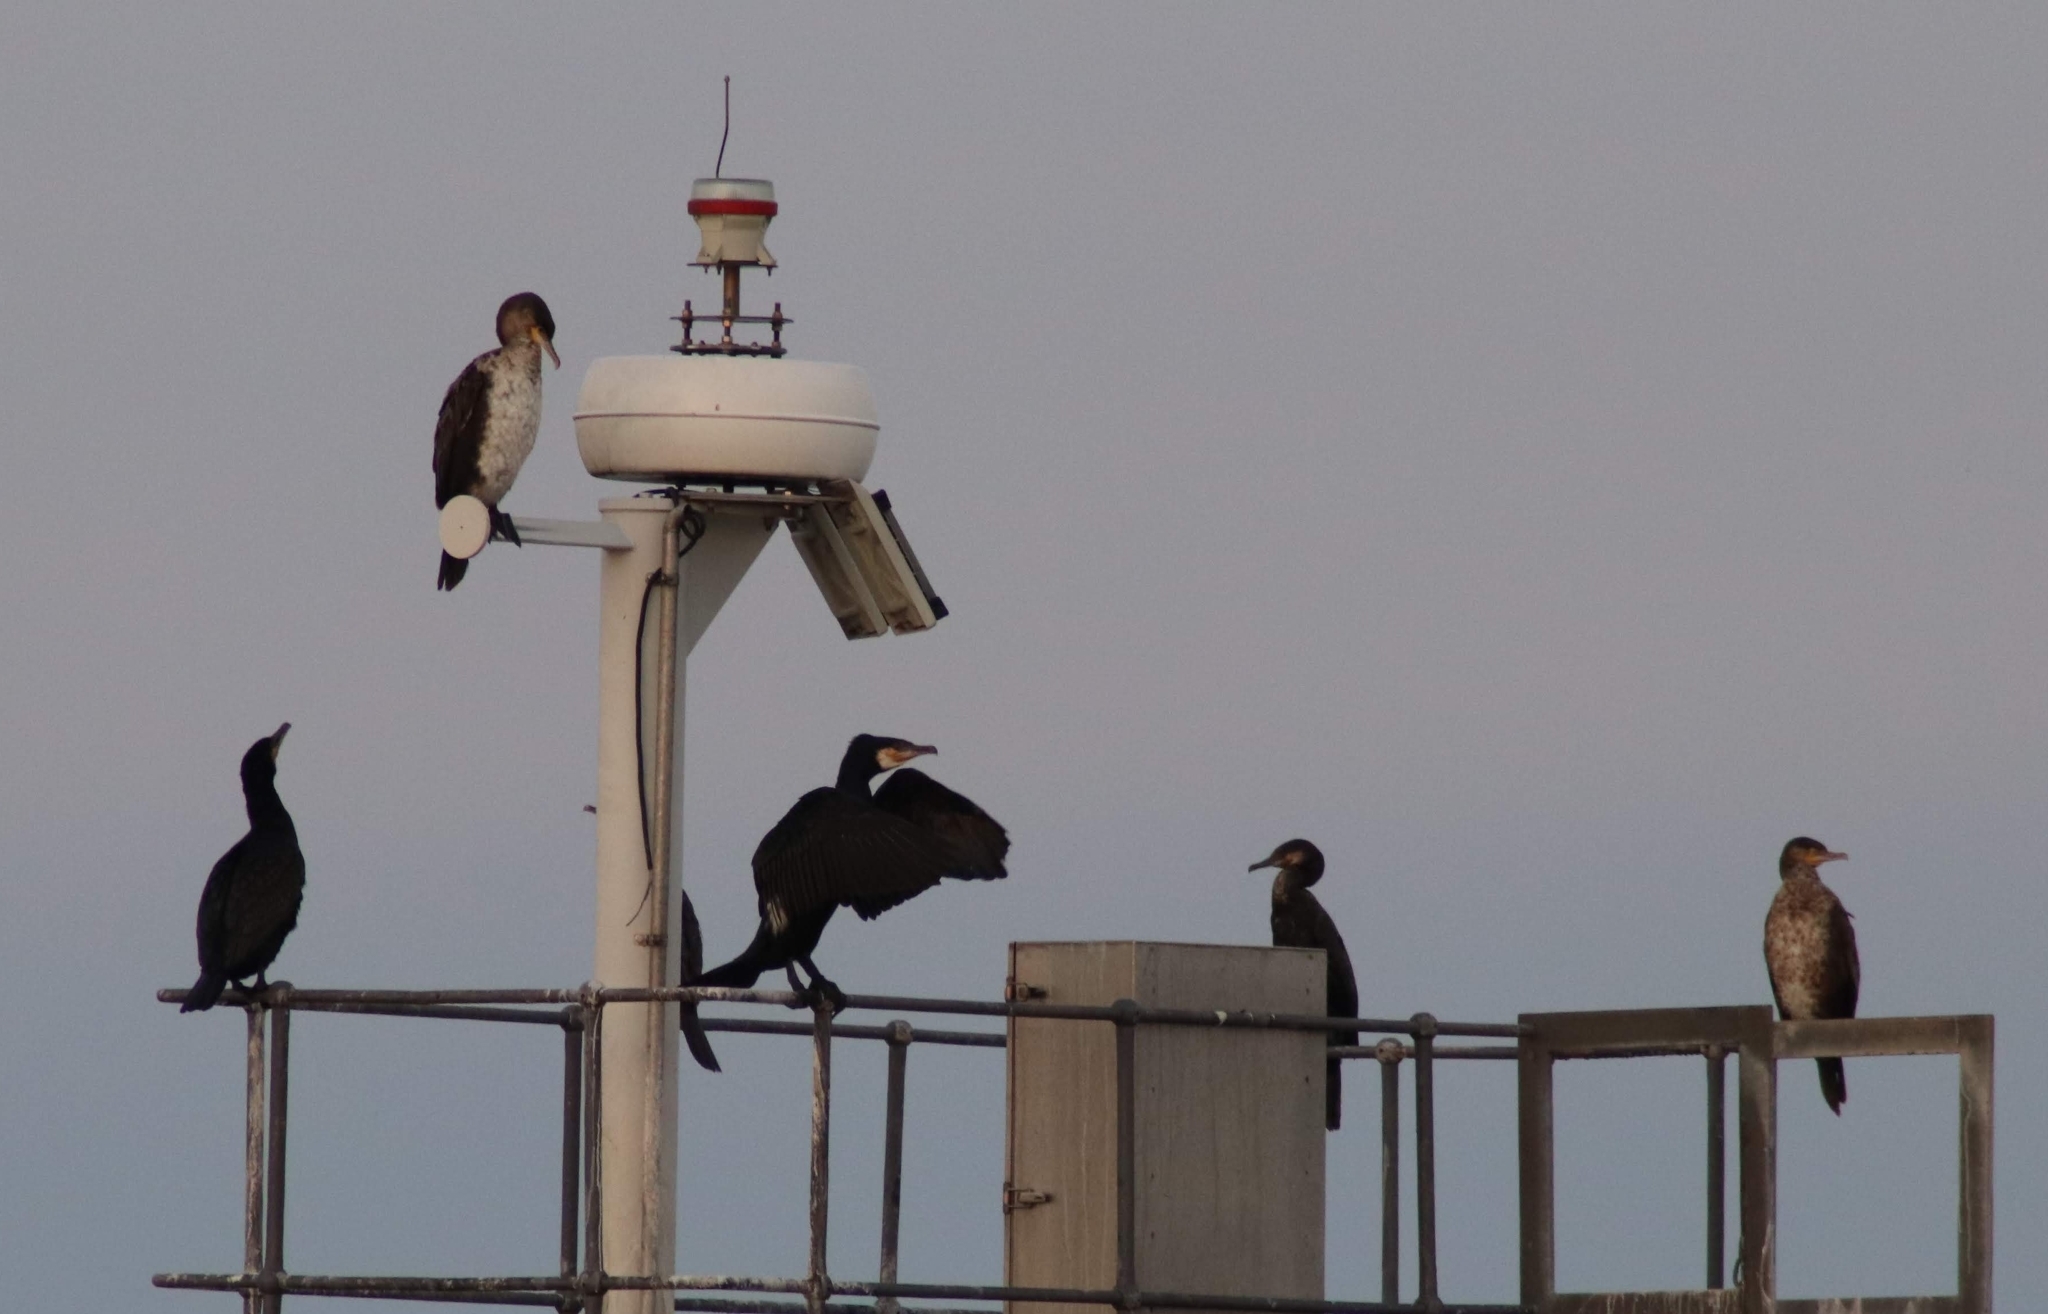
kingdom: Animalia
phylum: Chordata
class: Aves
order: Suliformes
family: Phalacrocoracidae
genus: Phalacrocorax
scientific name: Phalacrocorax carbo
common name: Great cormorant
